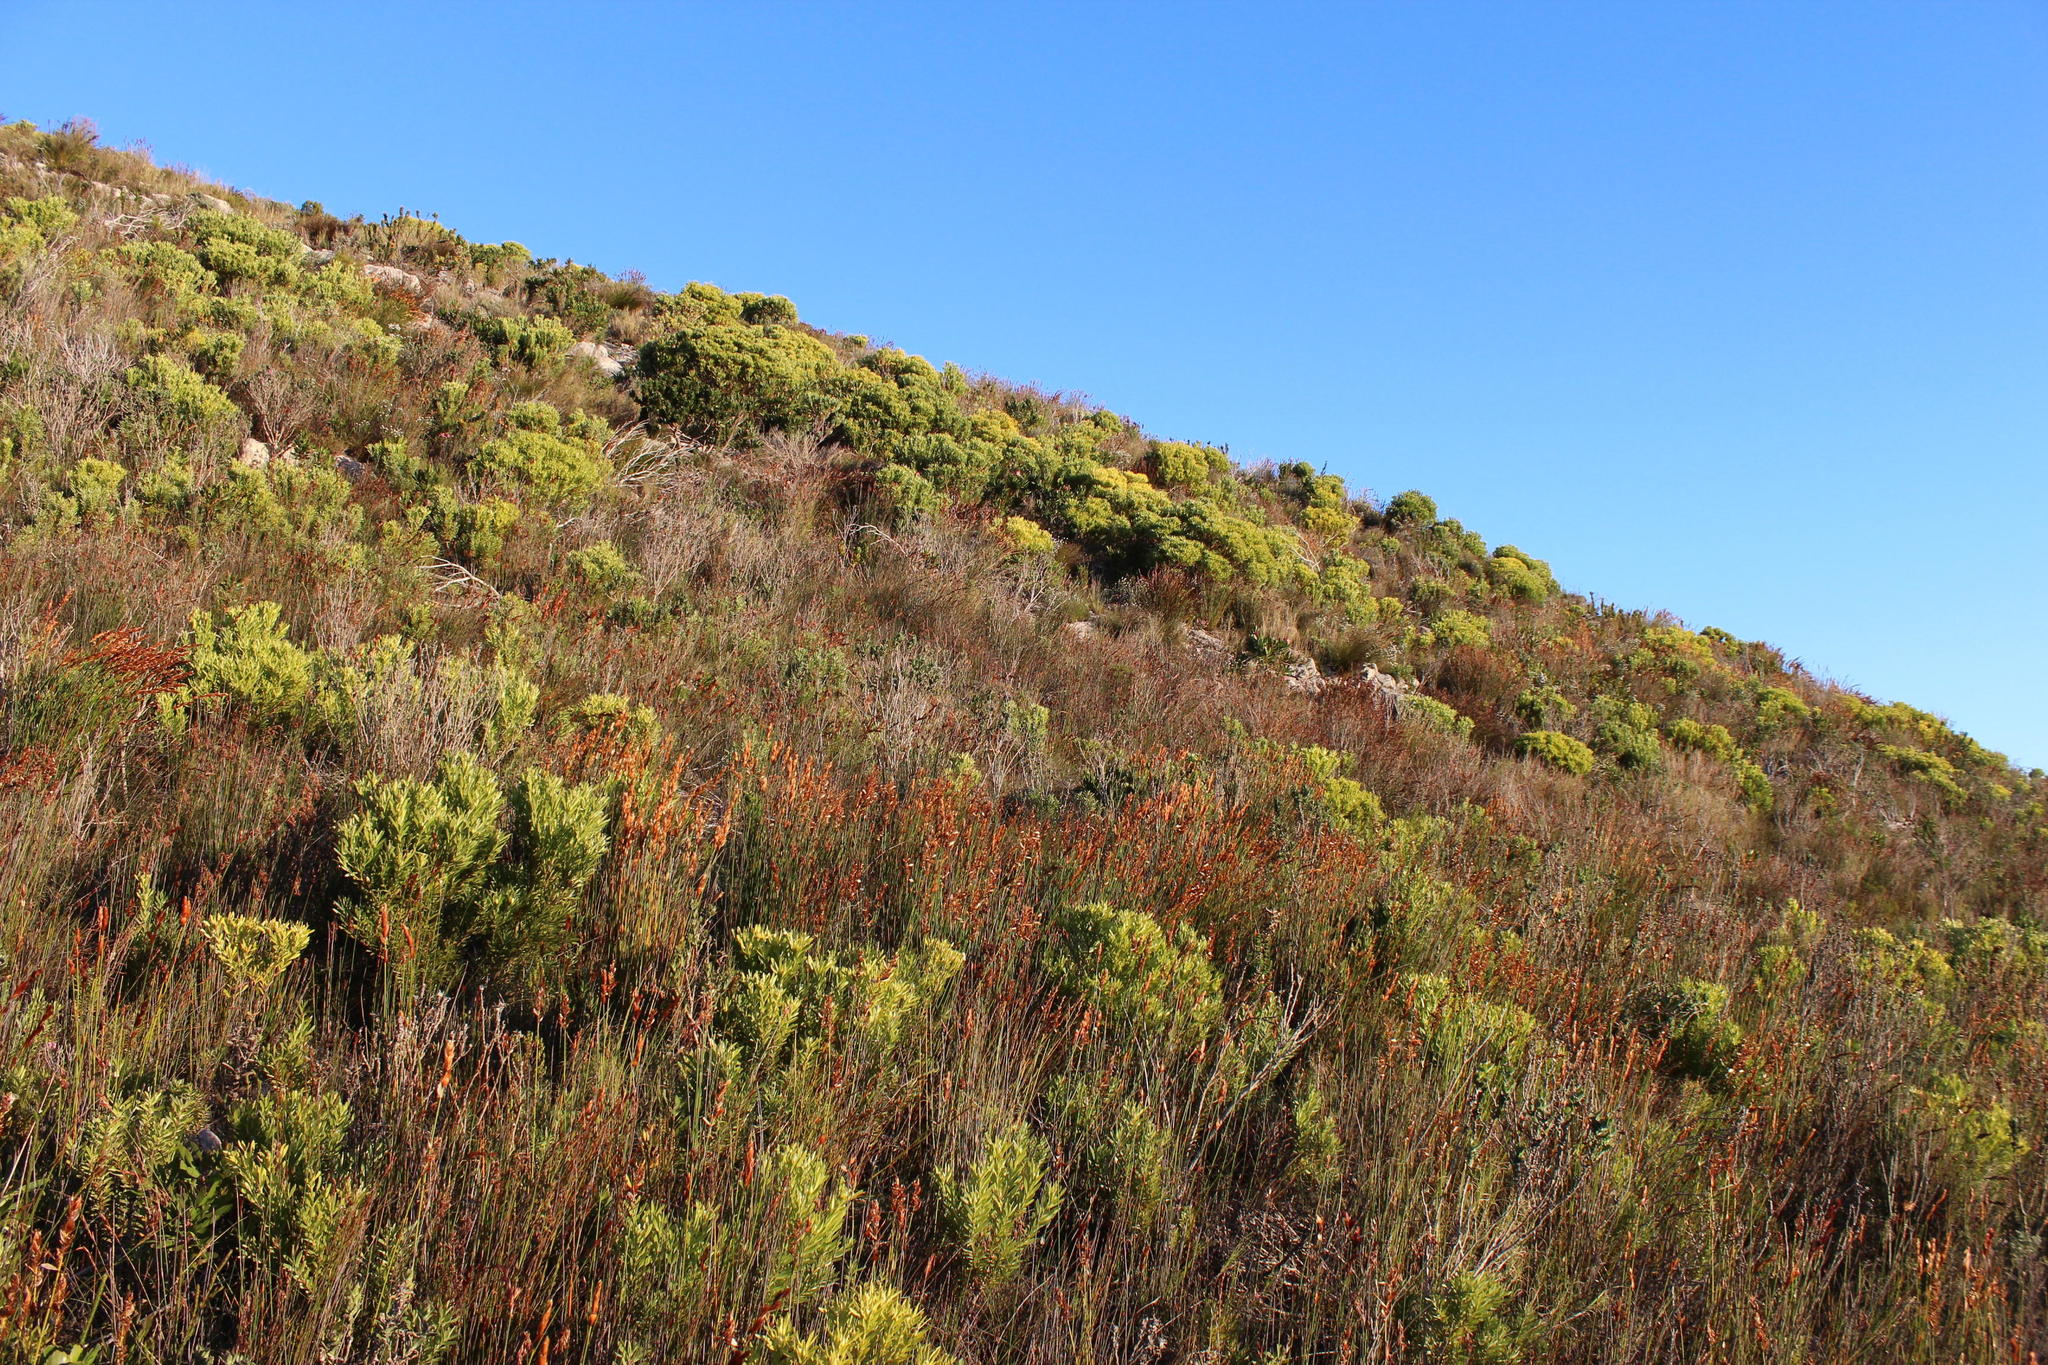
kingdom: Plantae
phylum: Tracheophyta
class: Magnoliopsida
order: Proteales
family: Proteaceae
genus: Leucadendron
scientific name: Leucadendron meridianum
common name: Limestone conebush
